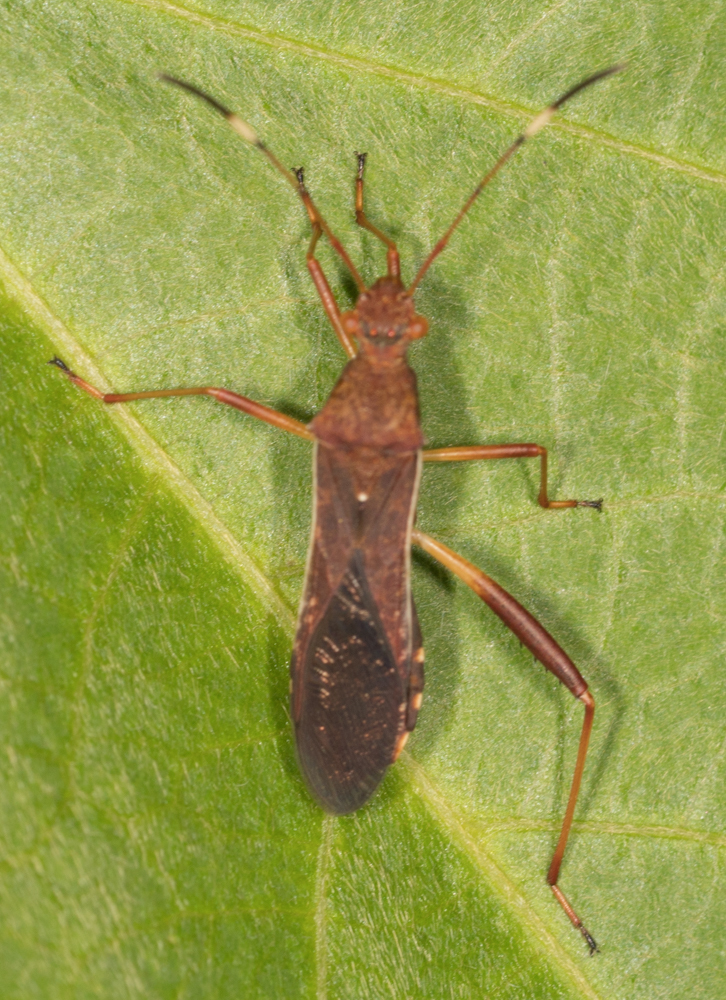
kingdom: Animalia
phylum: Arthropoda
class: Insecta
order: Hemiptera
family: Alydidae
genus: Megalotomus
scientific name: Megalotomus quinquespinosus
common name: Lupine bug
